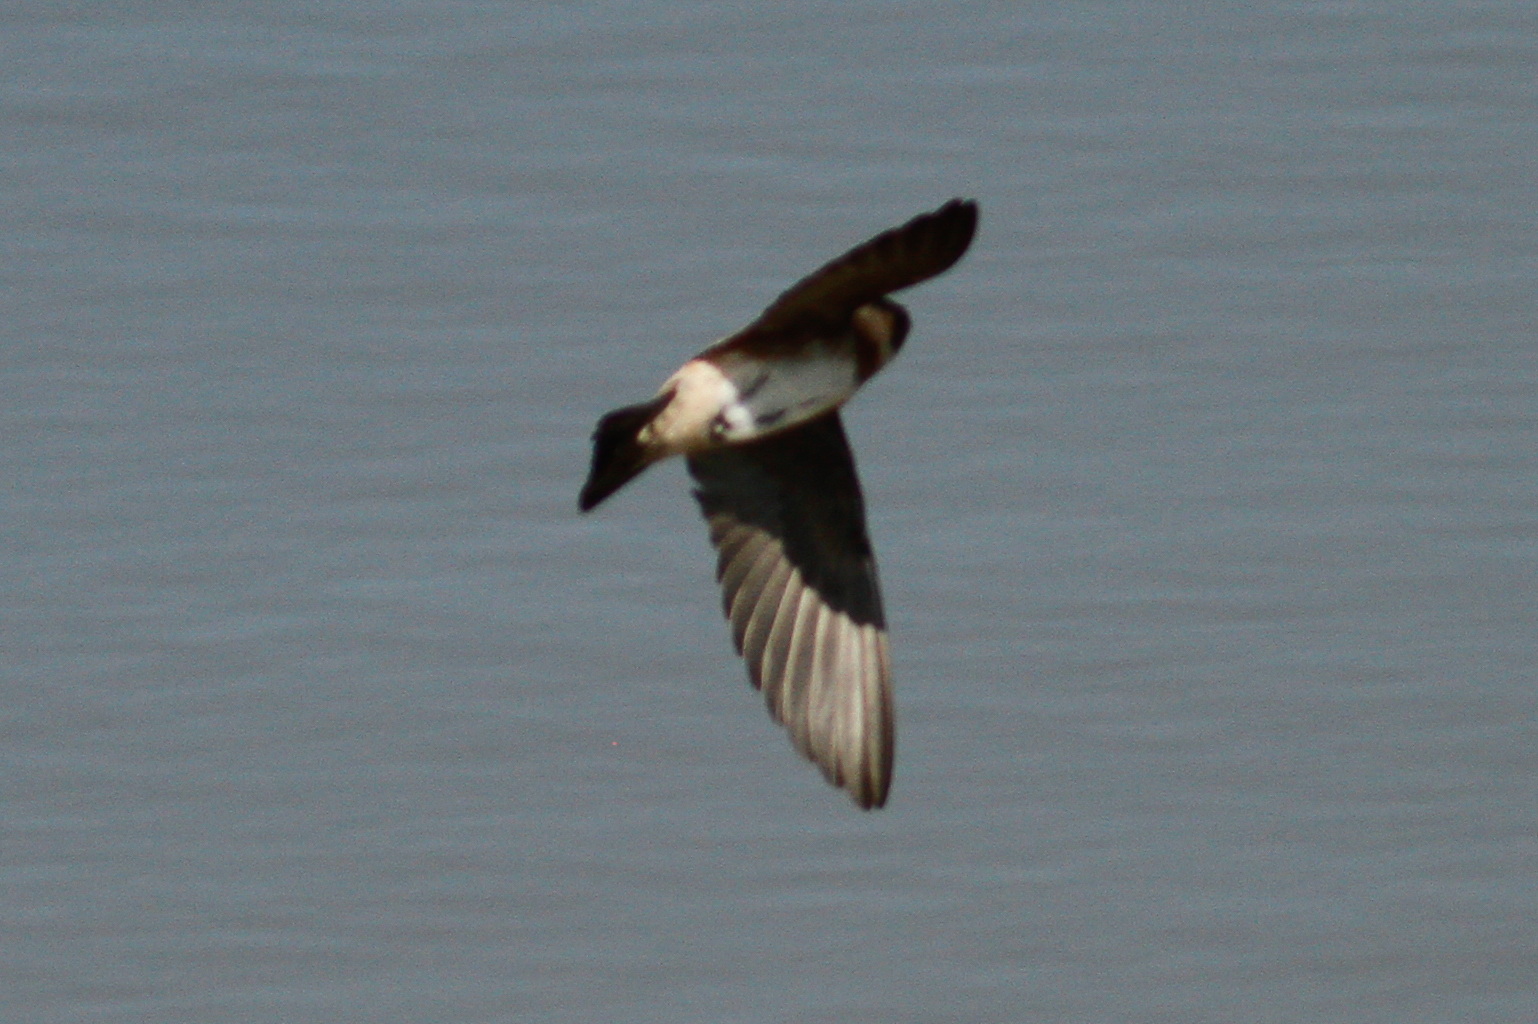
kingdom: Animalia
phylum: Chordata
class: Aves
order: Passeriformes
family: Hirundinidae
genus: Petrochelidon
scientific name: Petrochelidon rufocollaris
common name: Chestnut-collared swallow
